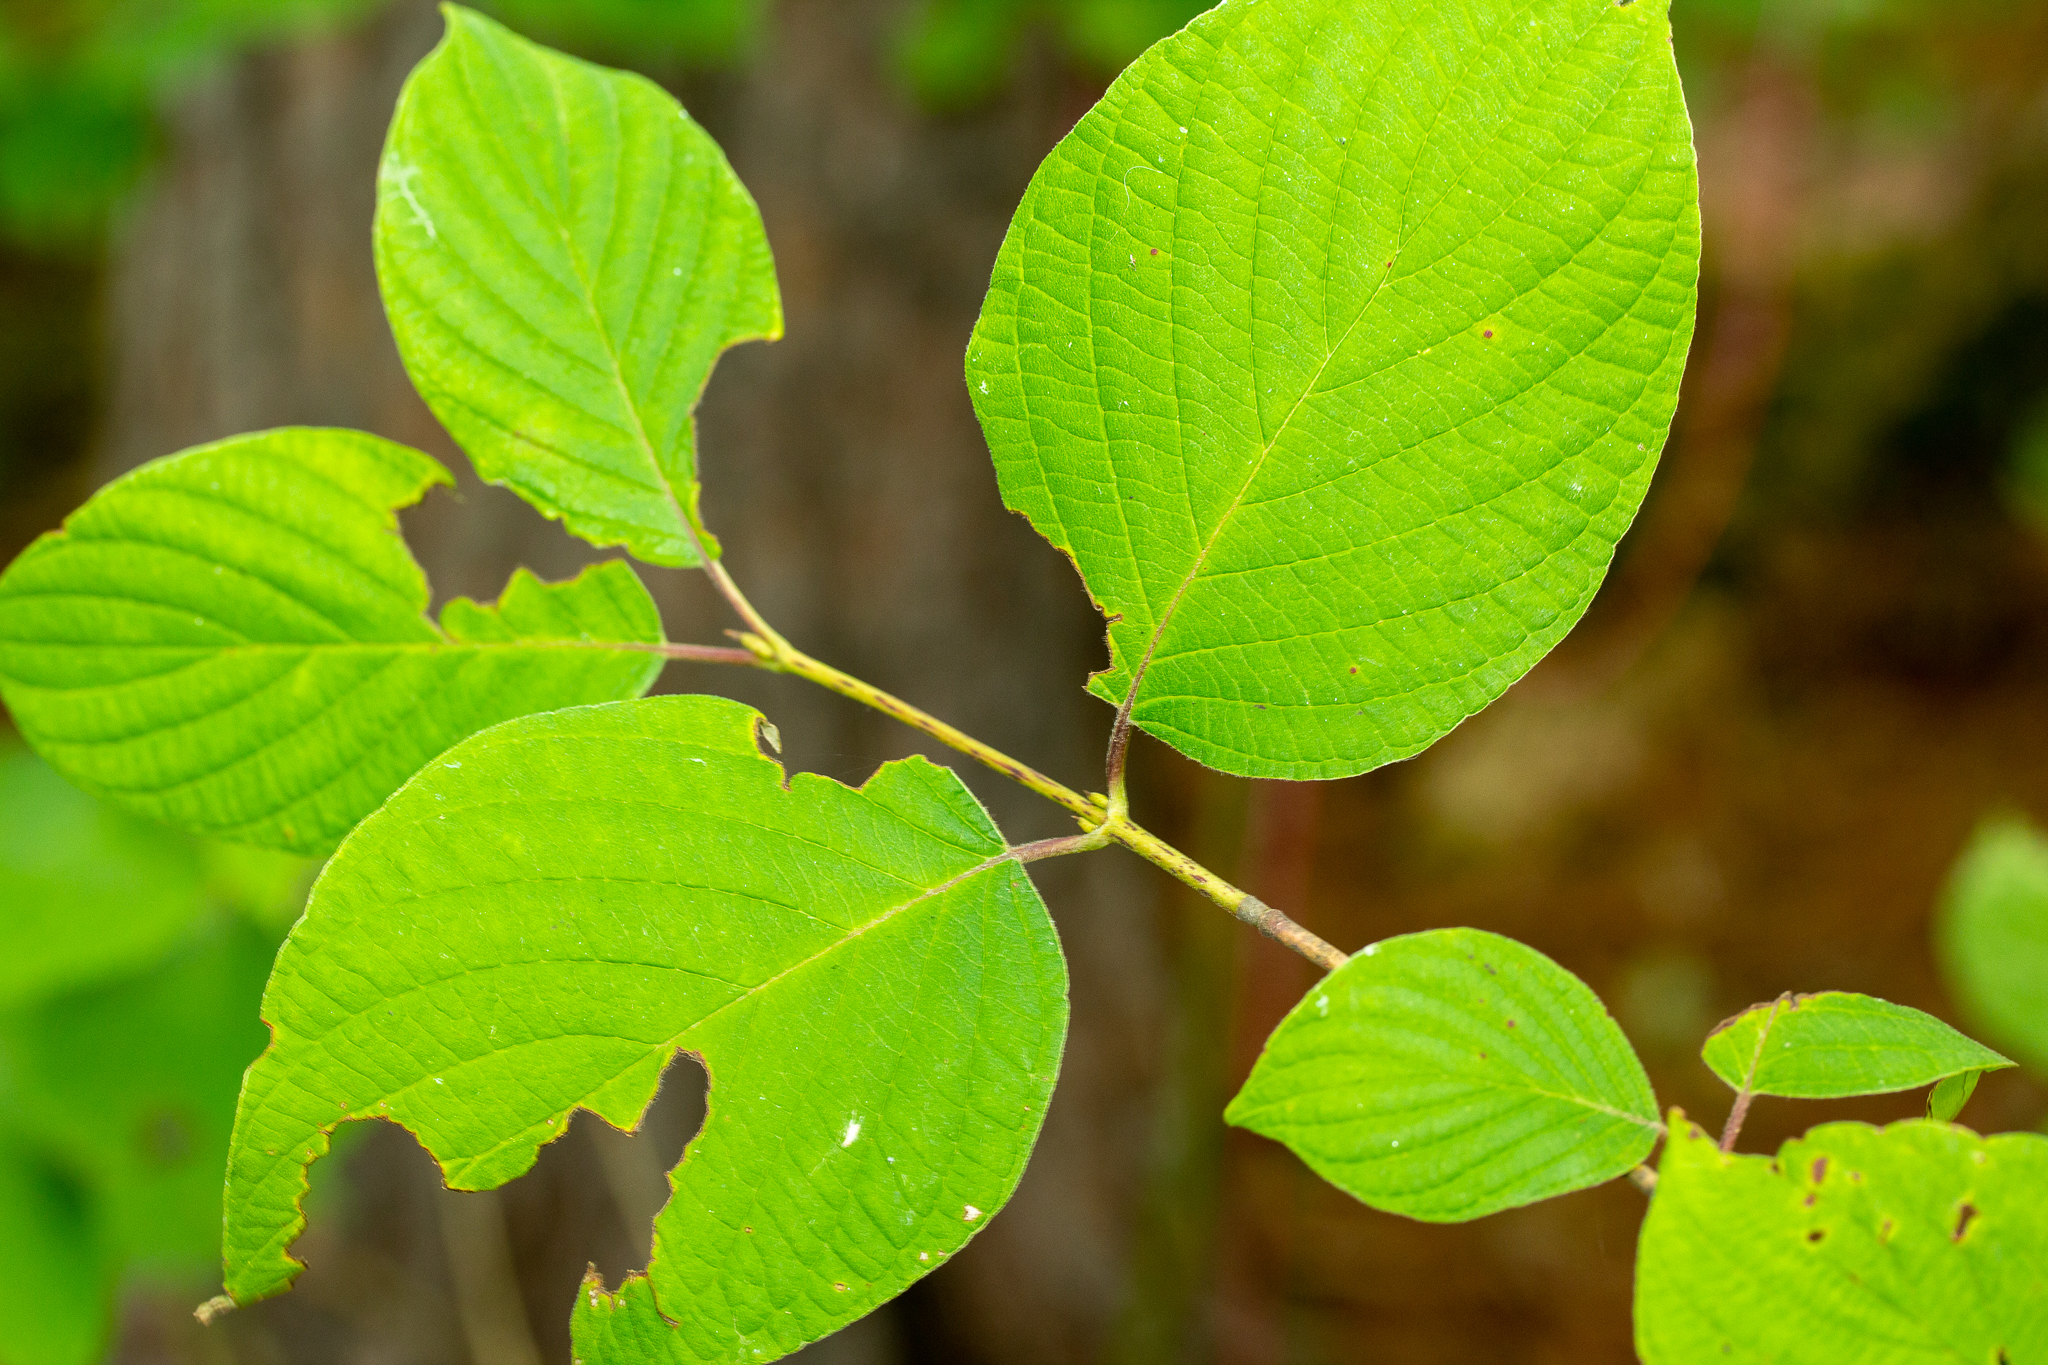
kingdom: Plantae
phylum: Tracheophyta
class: Magnoliopsida
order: Cornales
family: Cornaceae
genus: Cornus
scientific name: Cornus rugosa
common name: Round-leaf dogwood
